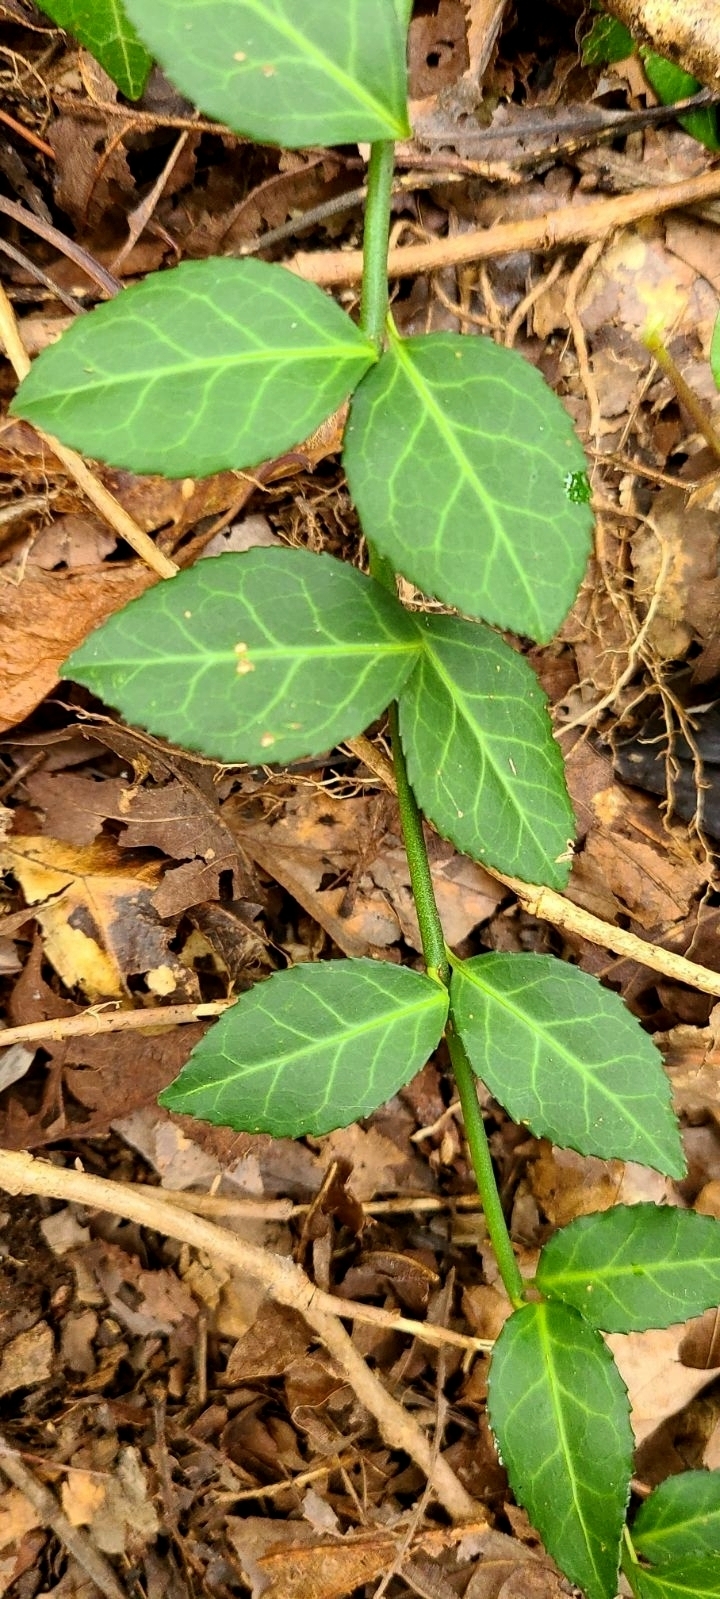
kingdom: Plantae
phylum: Tracheophyta
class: Magnoliopsida
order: Celastrales
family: Celastraceae
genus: Euonymus
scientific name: Euonymus fortunei
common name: Climbing euonymus
